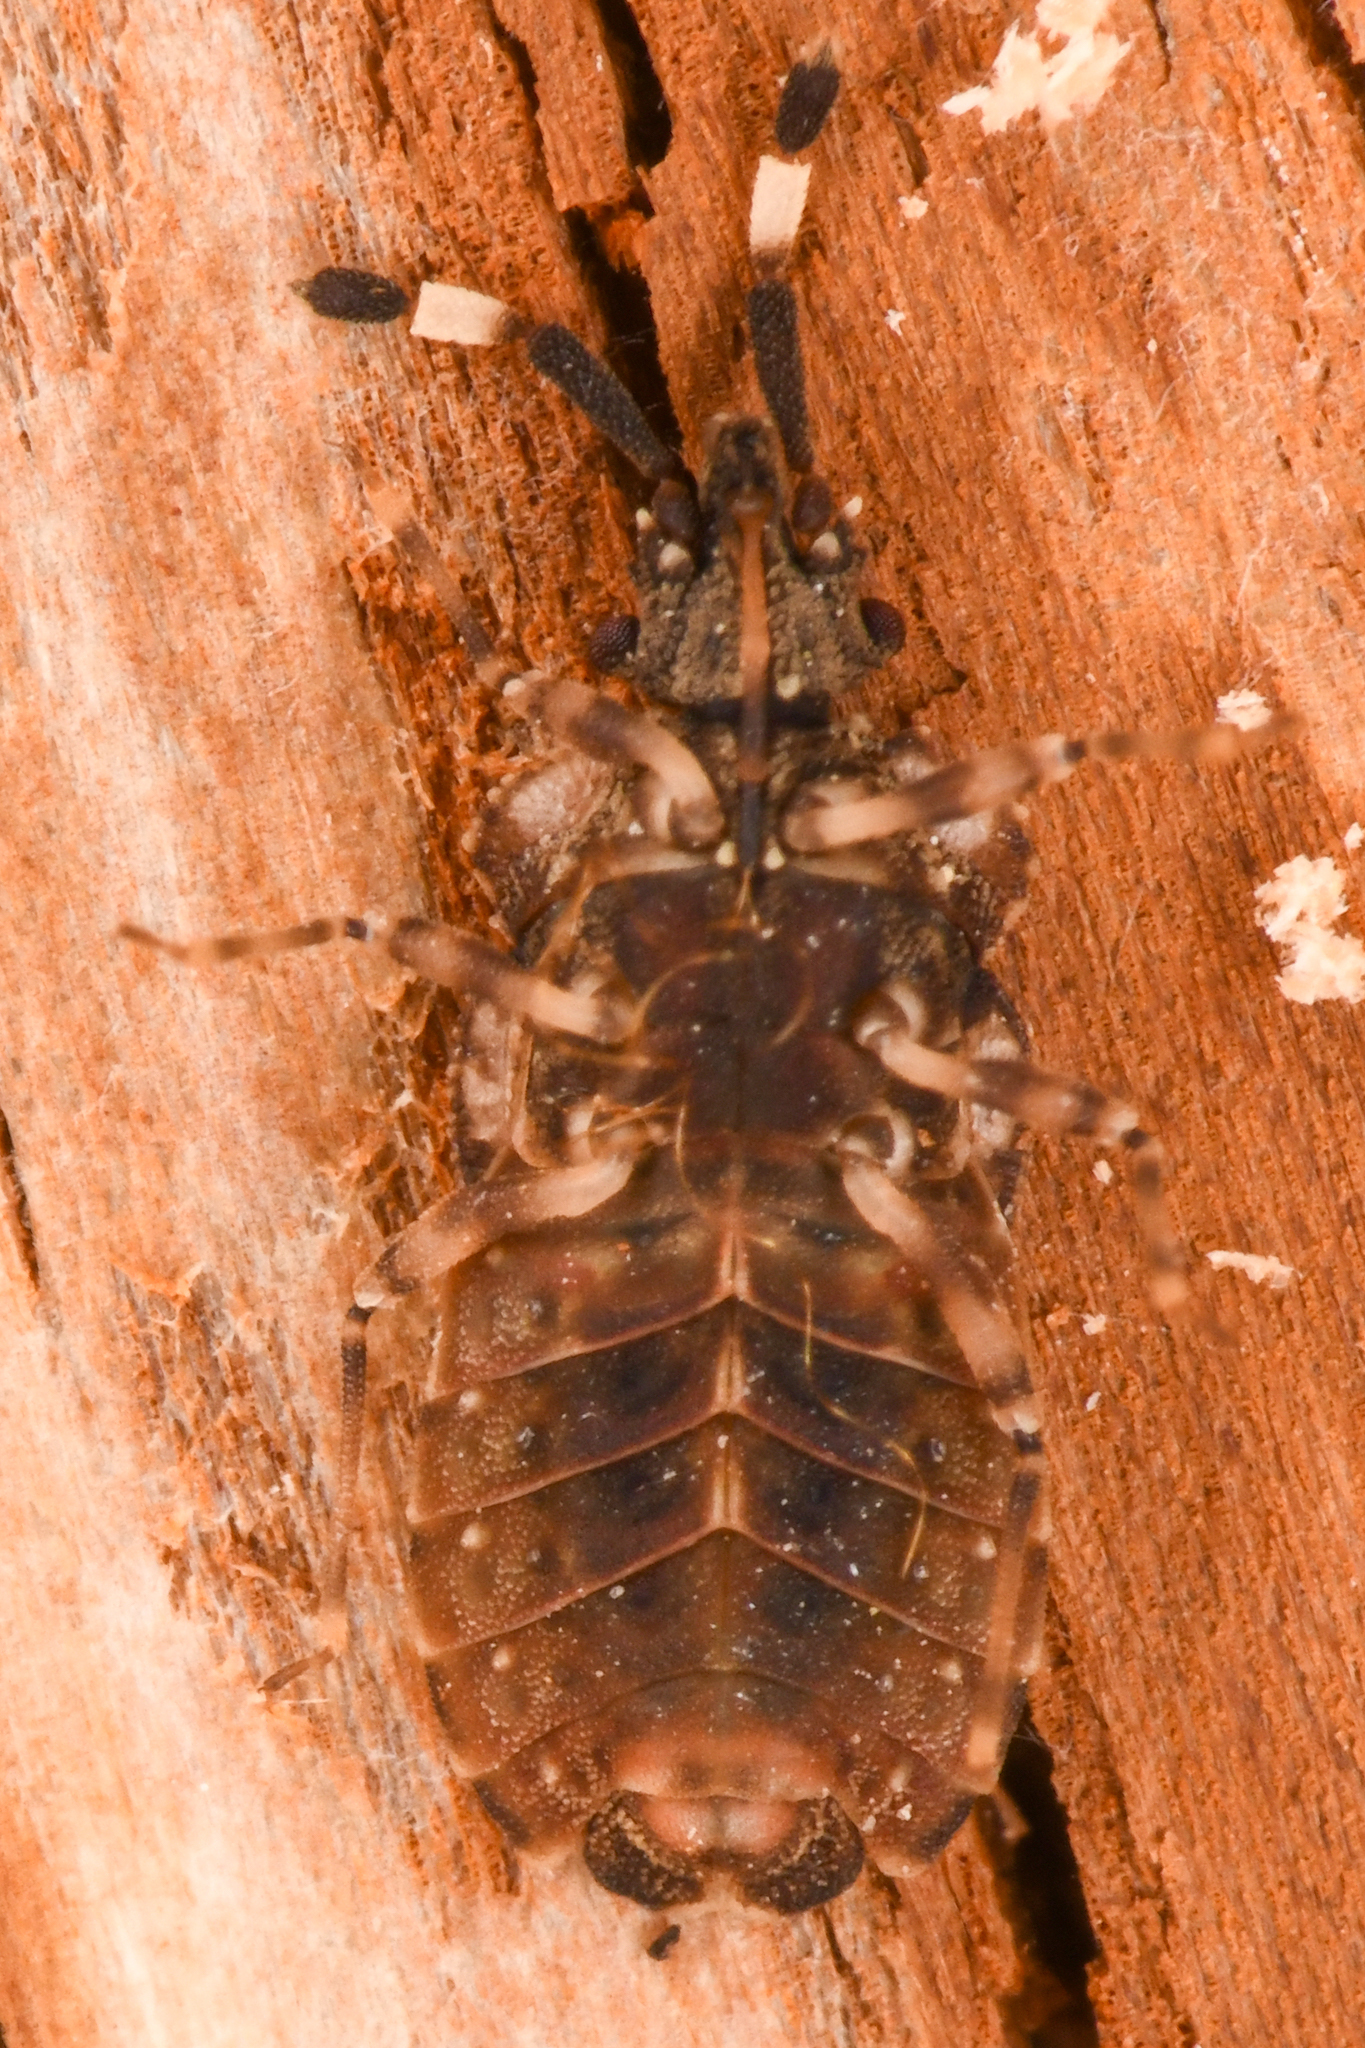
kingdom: Animalia
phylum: Arthropoda
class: Insecta
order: Hemiptera
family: Aradidae
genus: Aradus
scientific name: Aradus depictus
